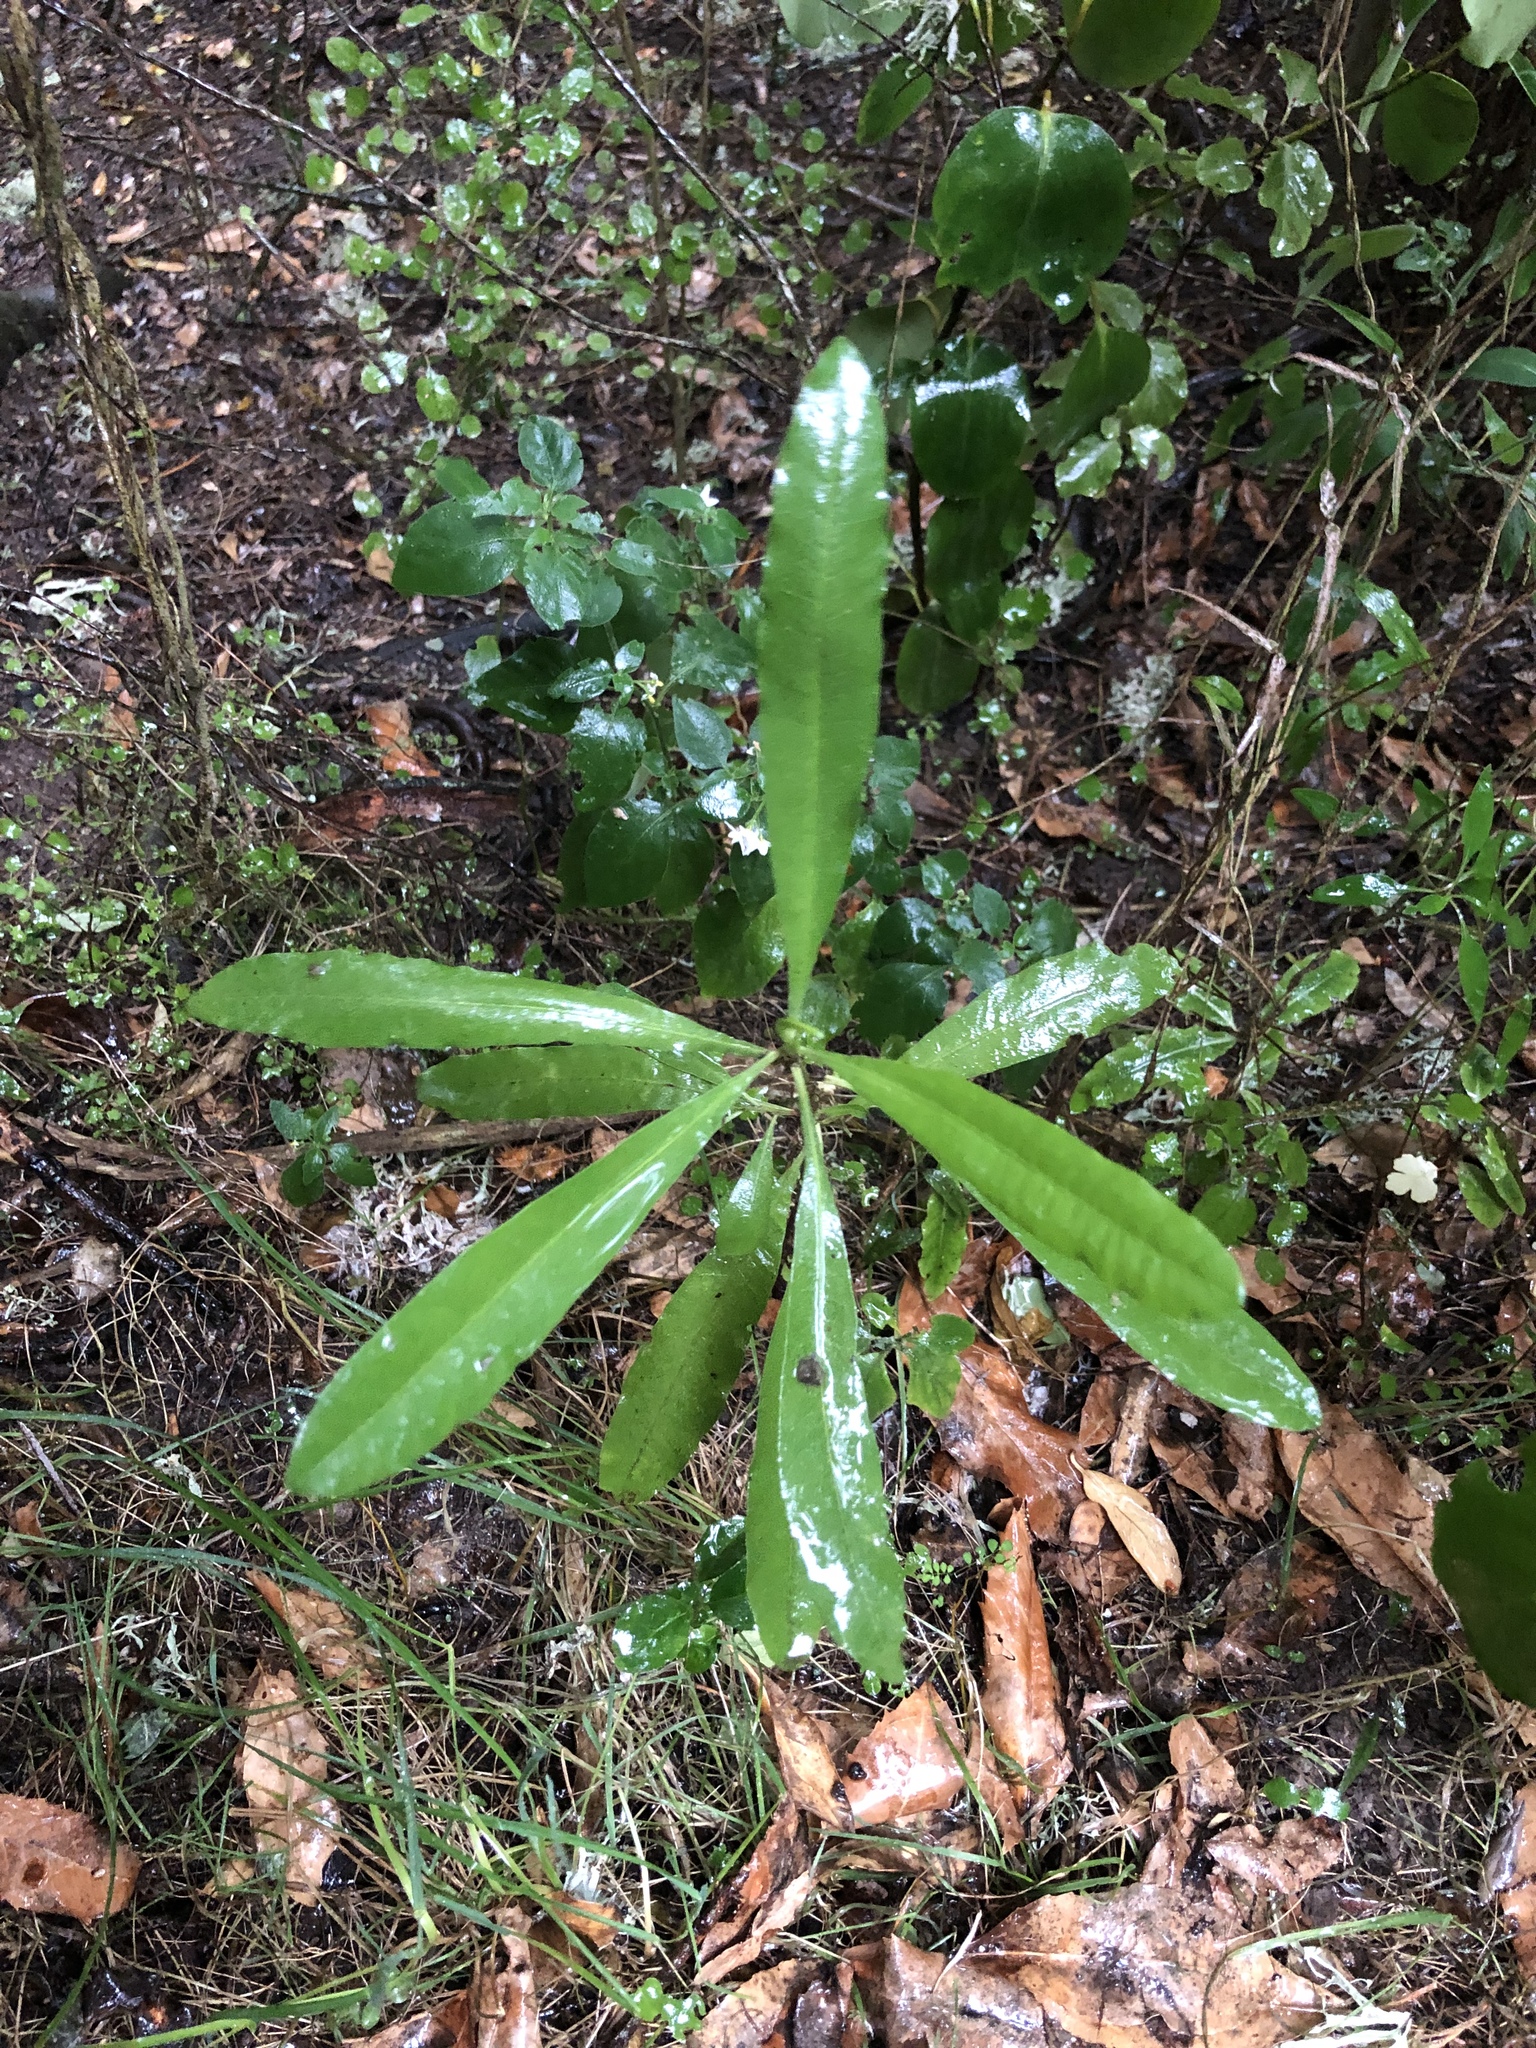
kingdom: Plantae
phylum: Tracheophyta
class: Magnoliopsida
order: Sapindales
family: Sapindaceae
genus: Dodonaea
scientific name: Dodonaea viscosa
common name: Hopbush
